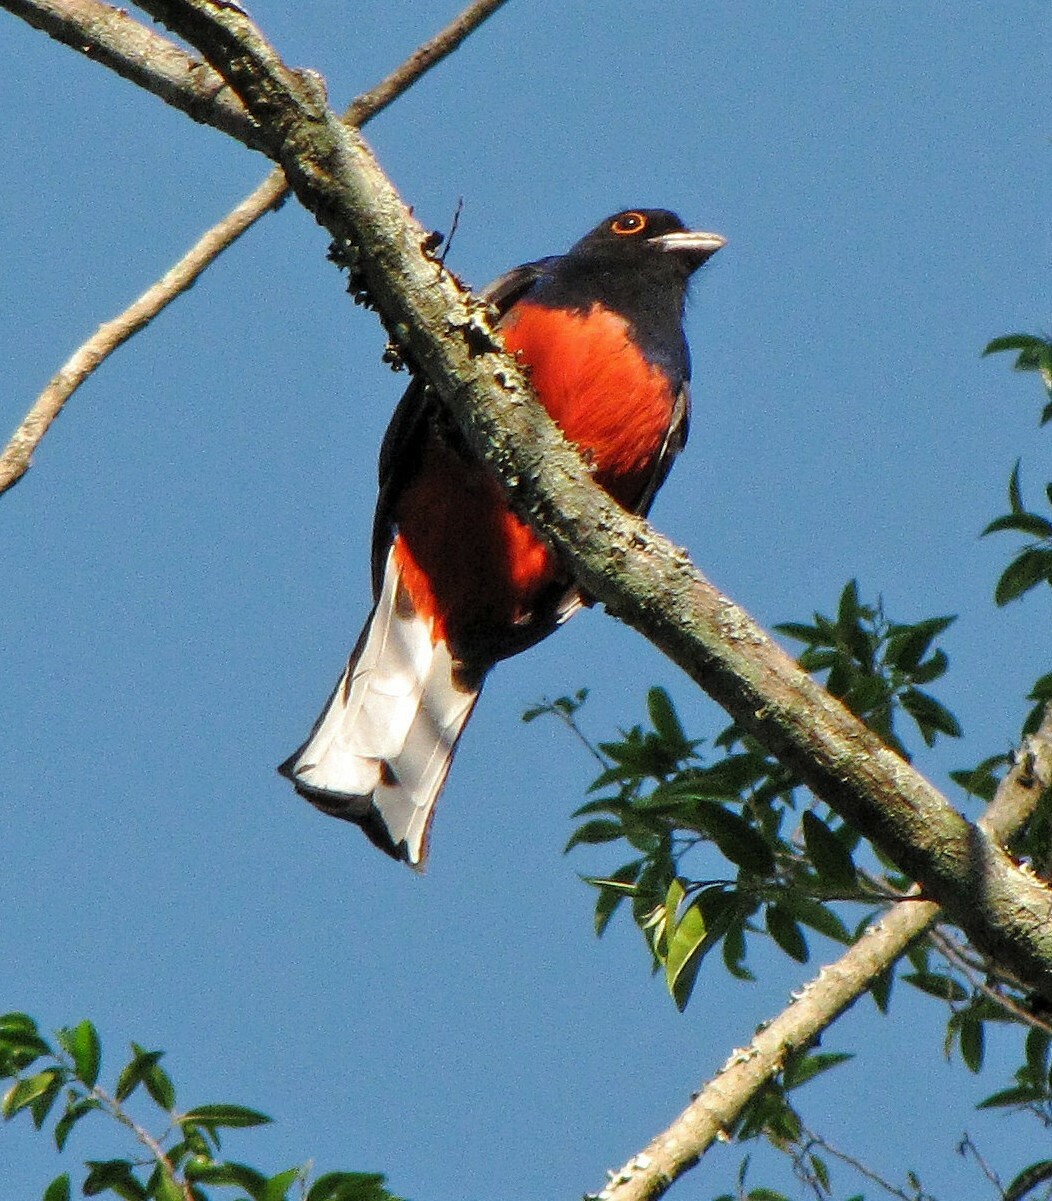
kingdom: Animalia
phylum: Chordata
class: Aves
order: Trogoniformes
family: Trogonidae
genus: Trogon
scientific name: Trogon surrucura
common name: Surucua trogon
